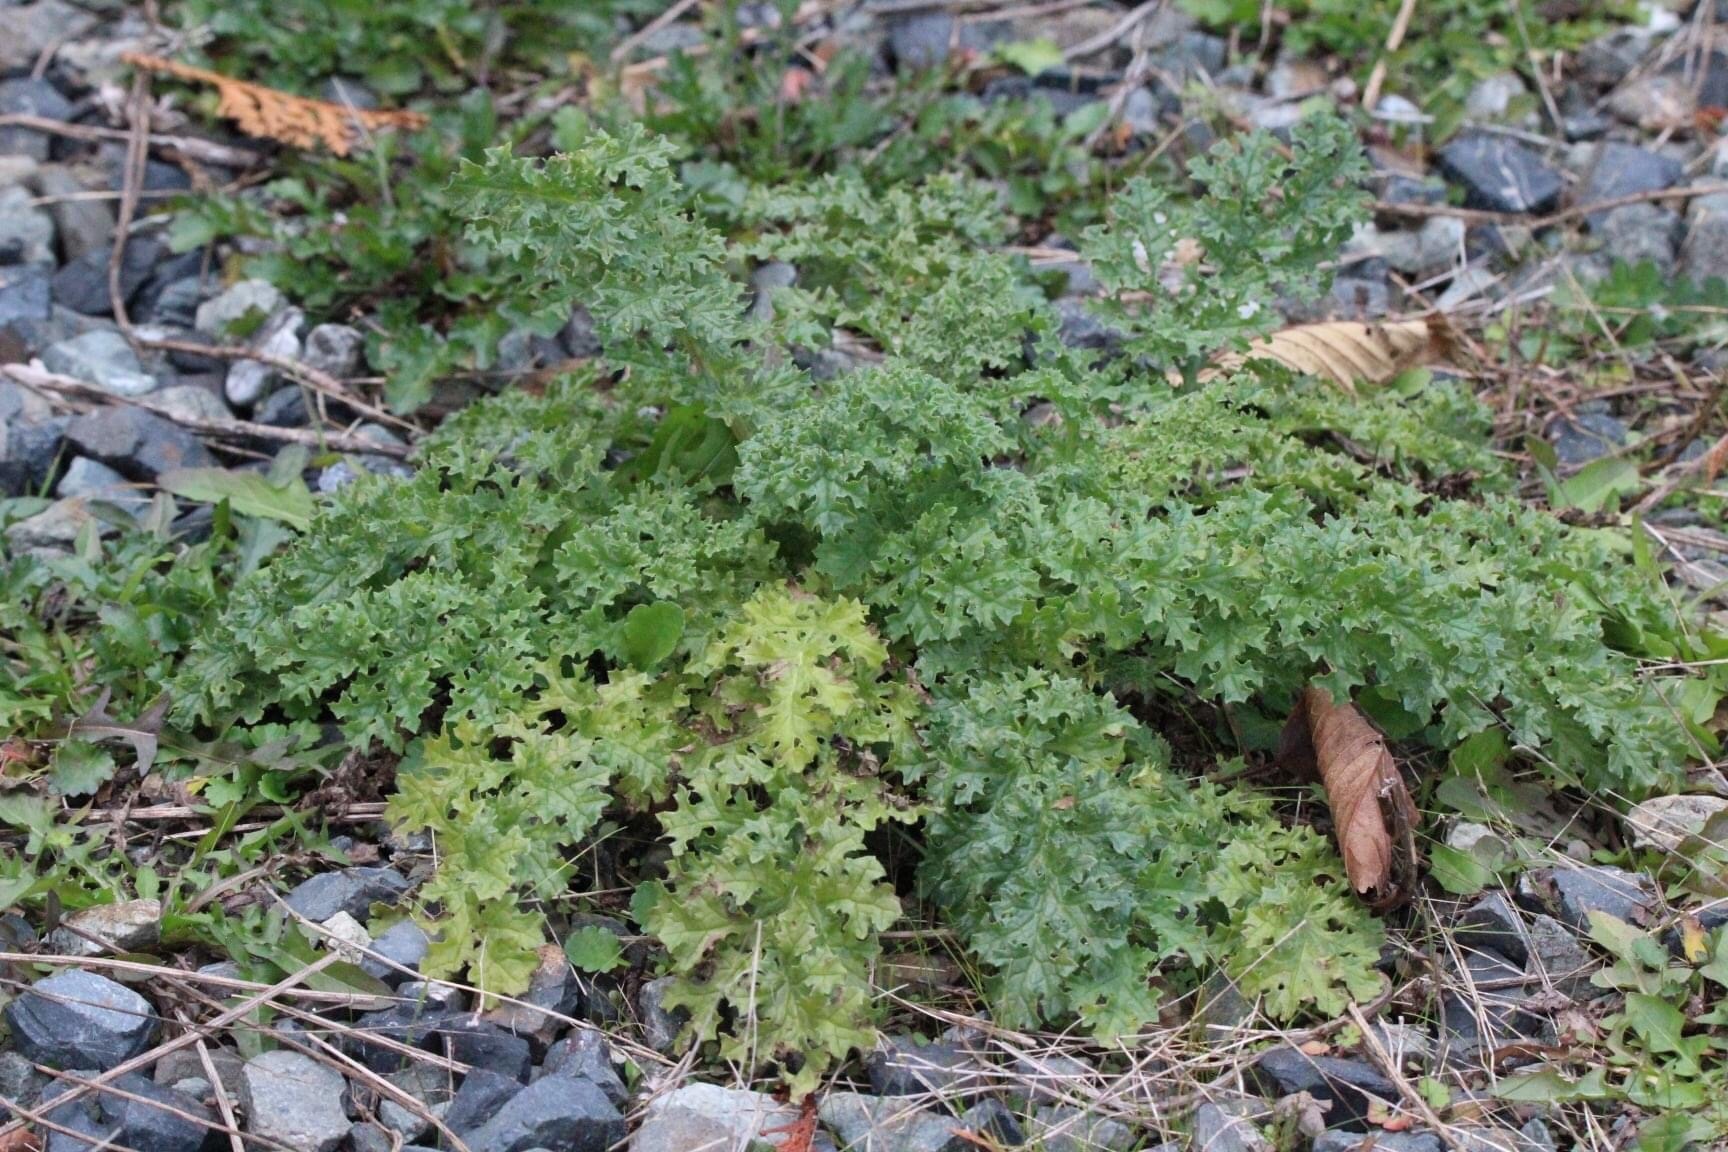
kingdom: Plantae
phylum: Tracheophyta
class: Magnoliopsida
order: Asterales
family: Asteraceae
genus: Jacobaea
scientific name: Jacobaea vulgaris
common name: Stinking willie
